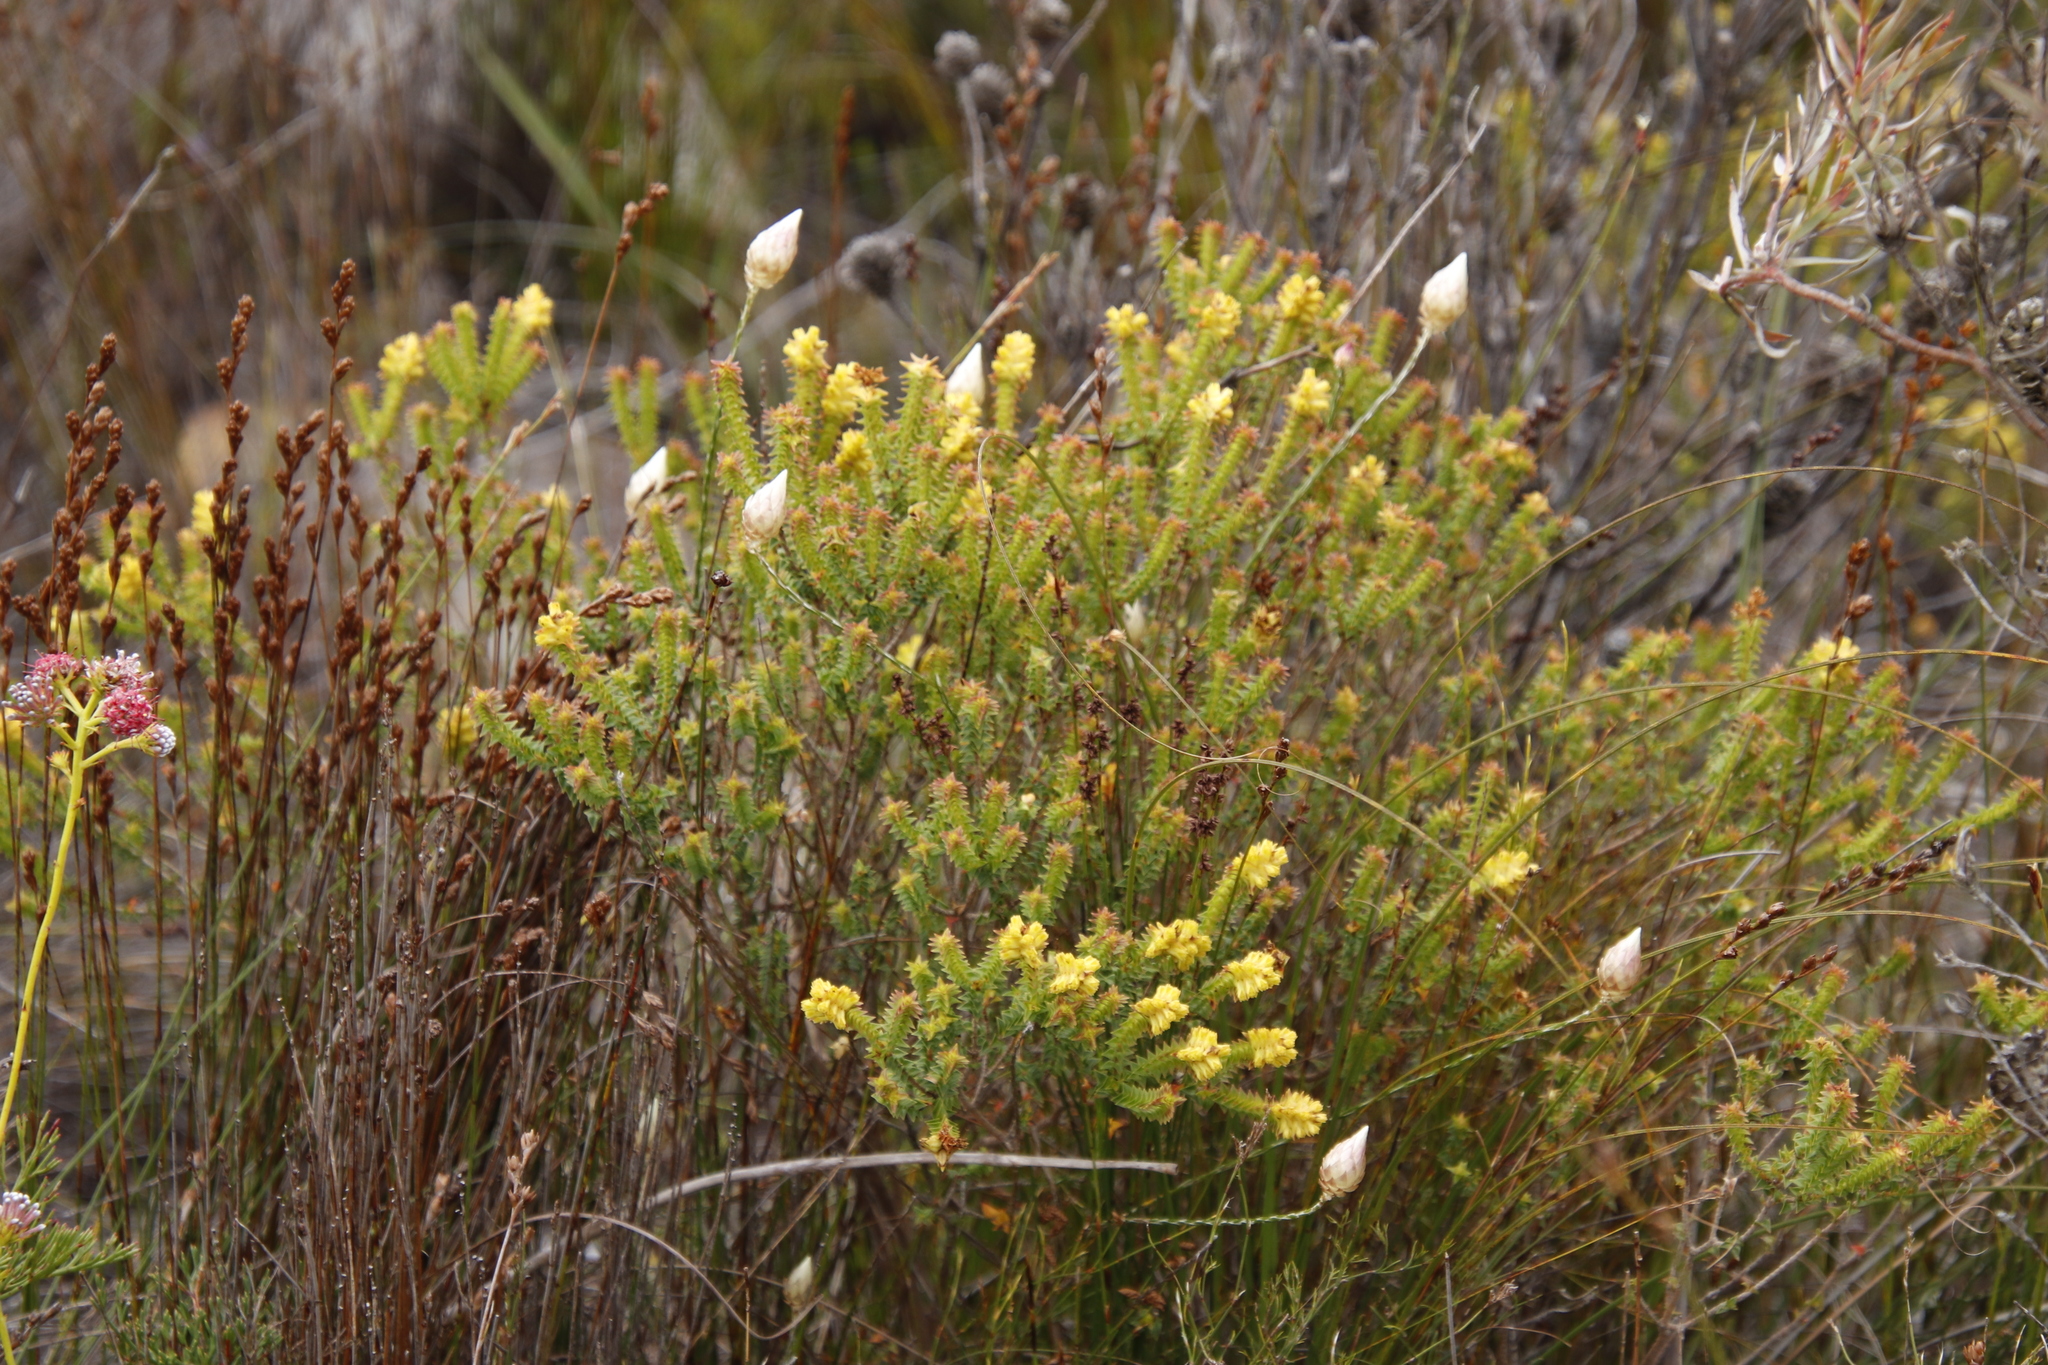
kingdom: Plantae
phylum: Tracheophyta
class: Magnoliopsida
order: Myrtales
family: Penaeaceae
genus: Penaea
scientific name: Penaea mucronata
